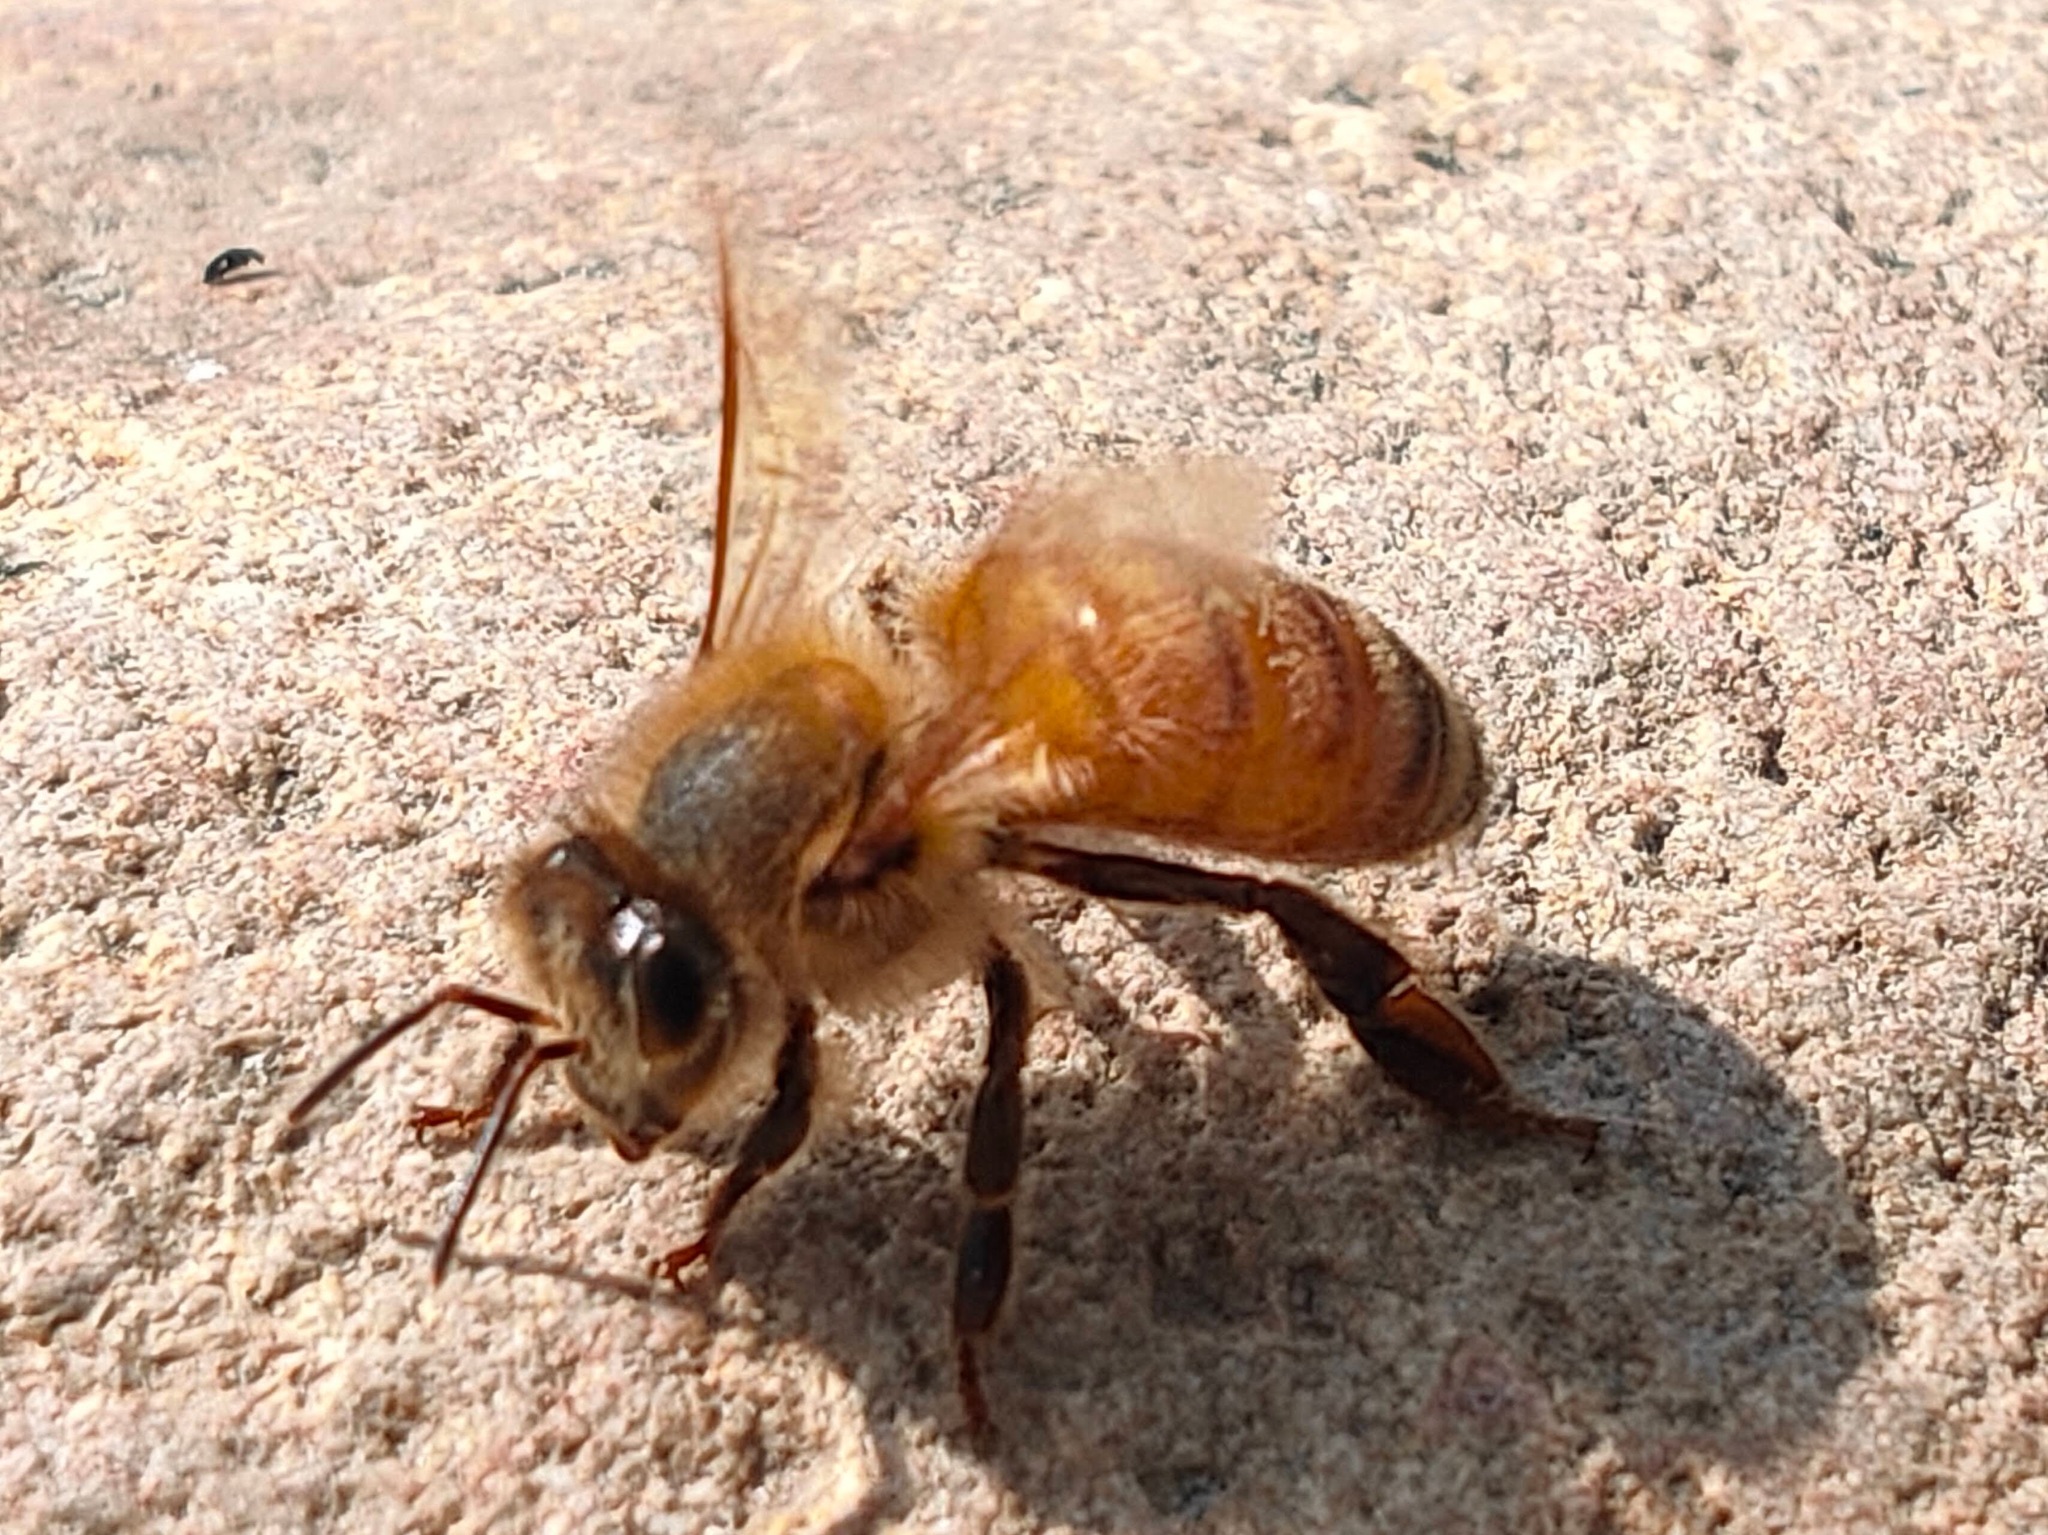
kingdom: Animalia
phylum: Arthropoda
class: Insecta
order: Hymenoptera
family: Apidae
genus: Apis
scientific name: Apis mellifera
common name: Honey bee
